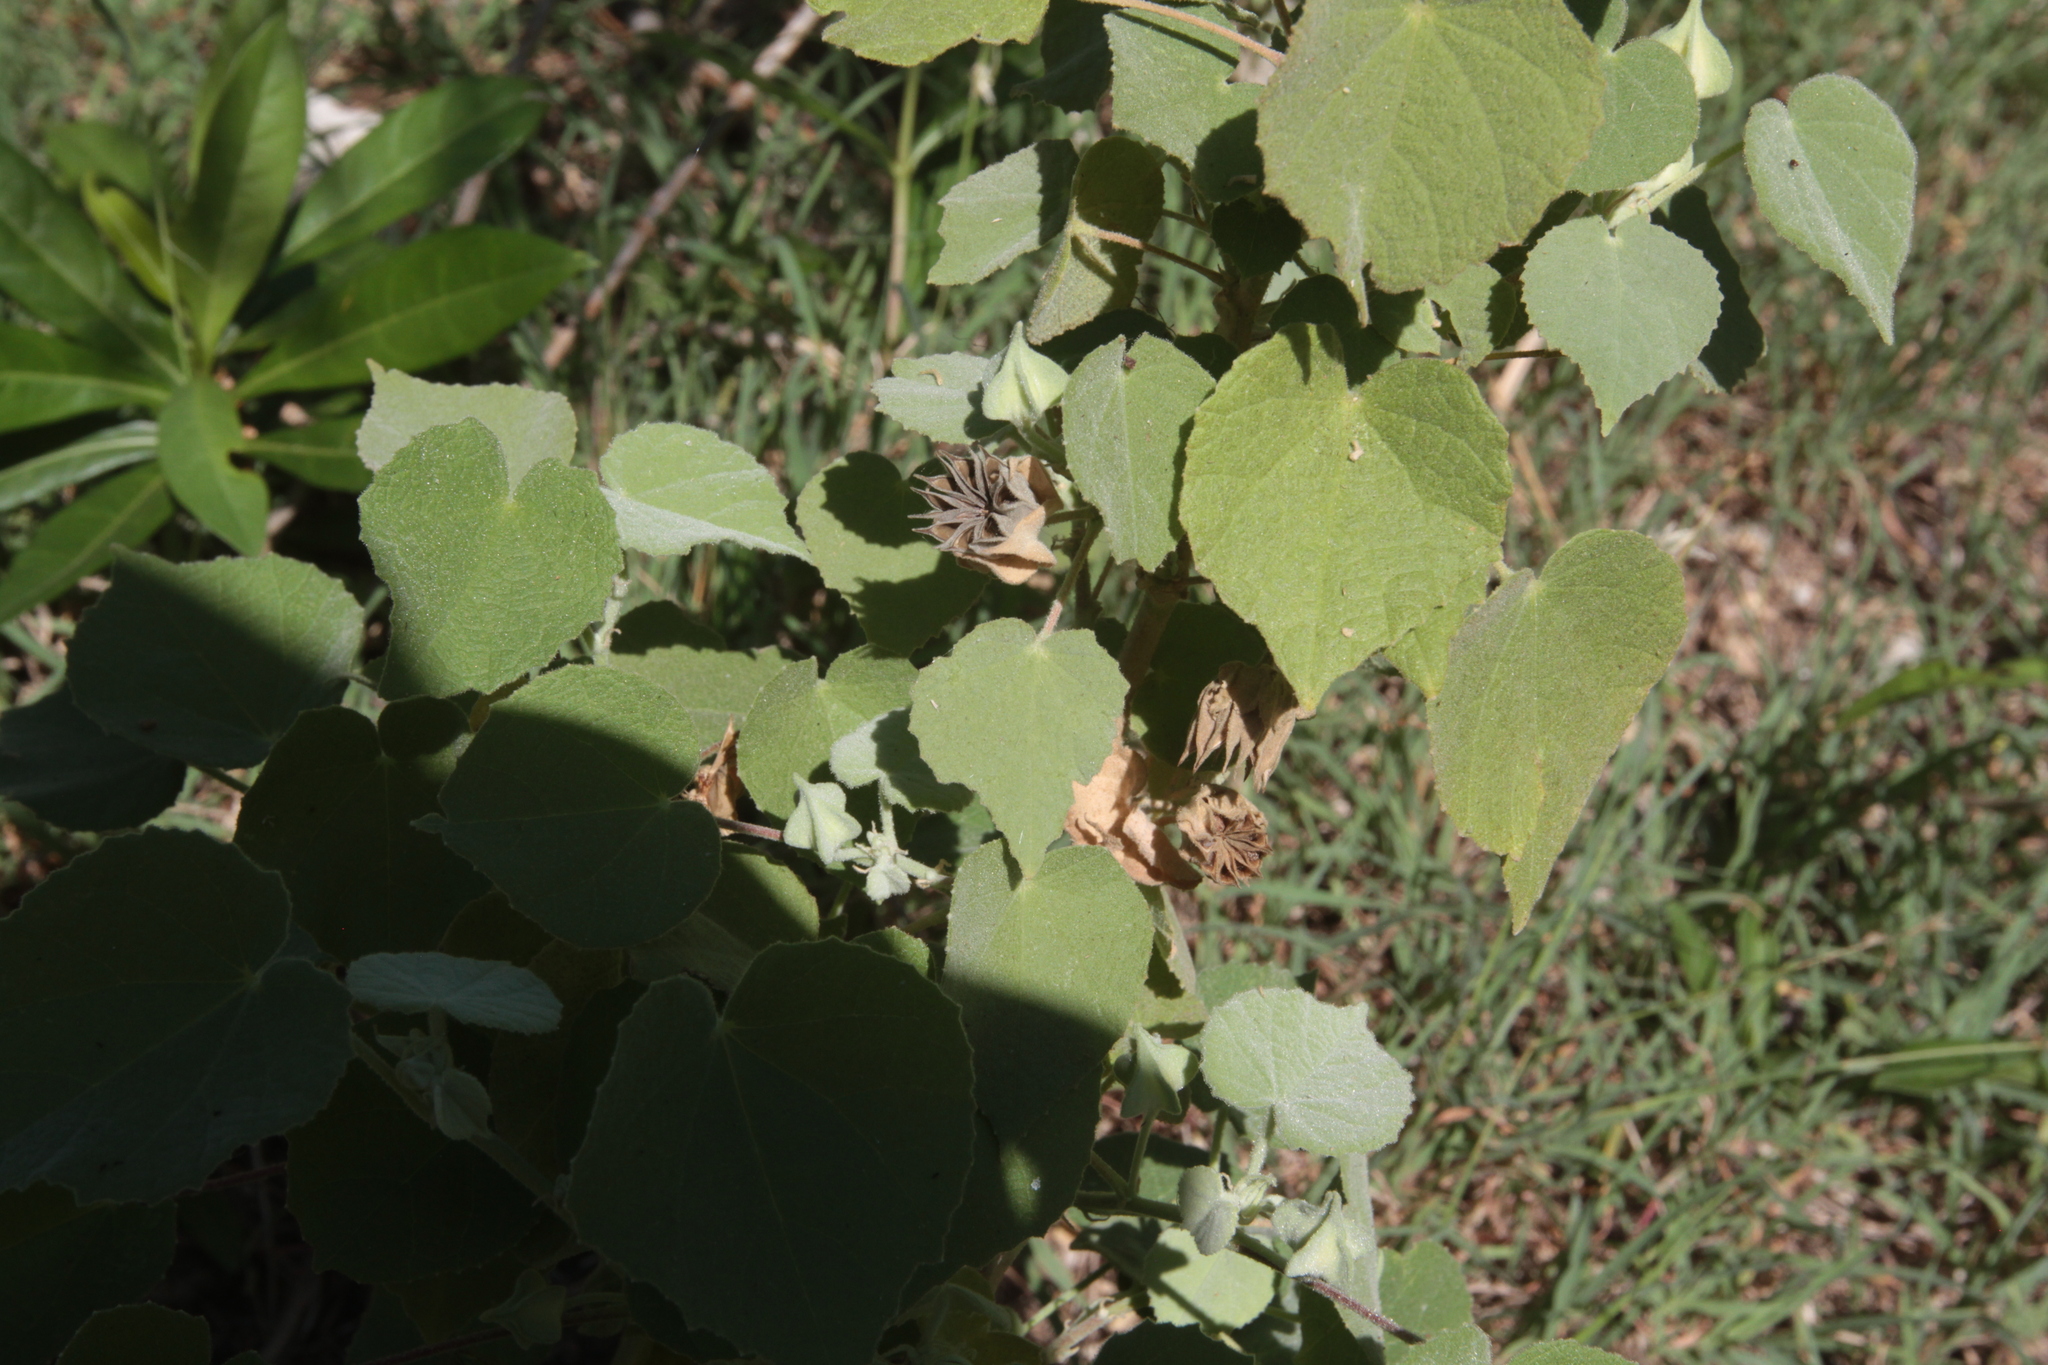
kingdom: Plantae
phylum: Tracheophyta
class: Magnoliopsida
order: Malvales
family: Malvaceae
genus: Abutilon
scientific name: Abutilon abutiloides
